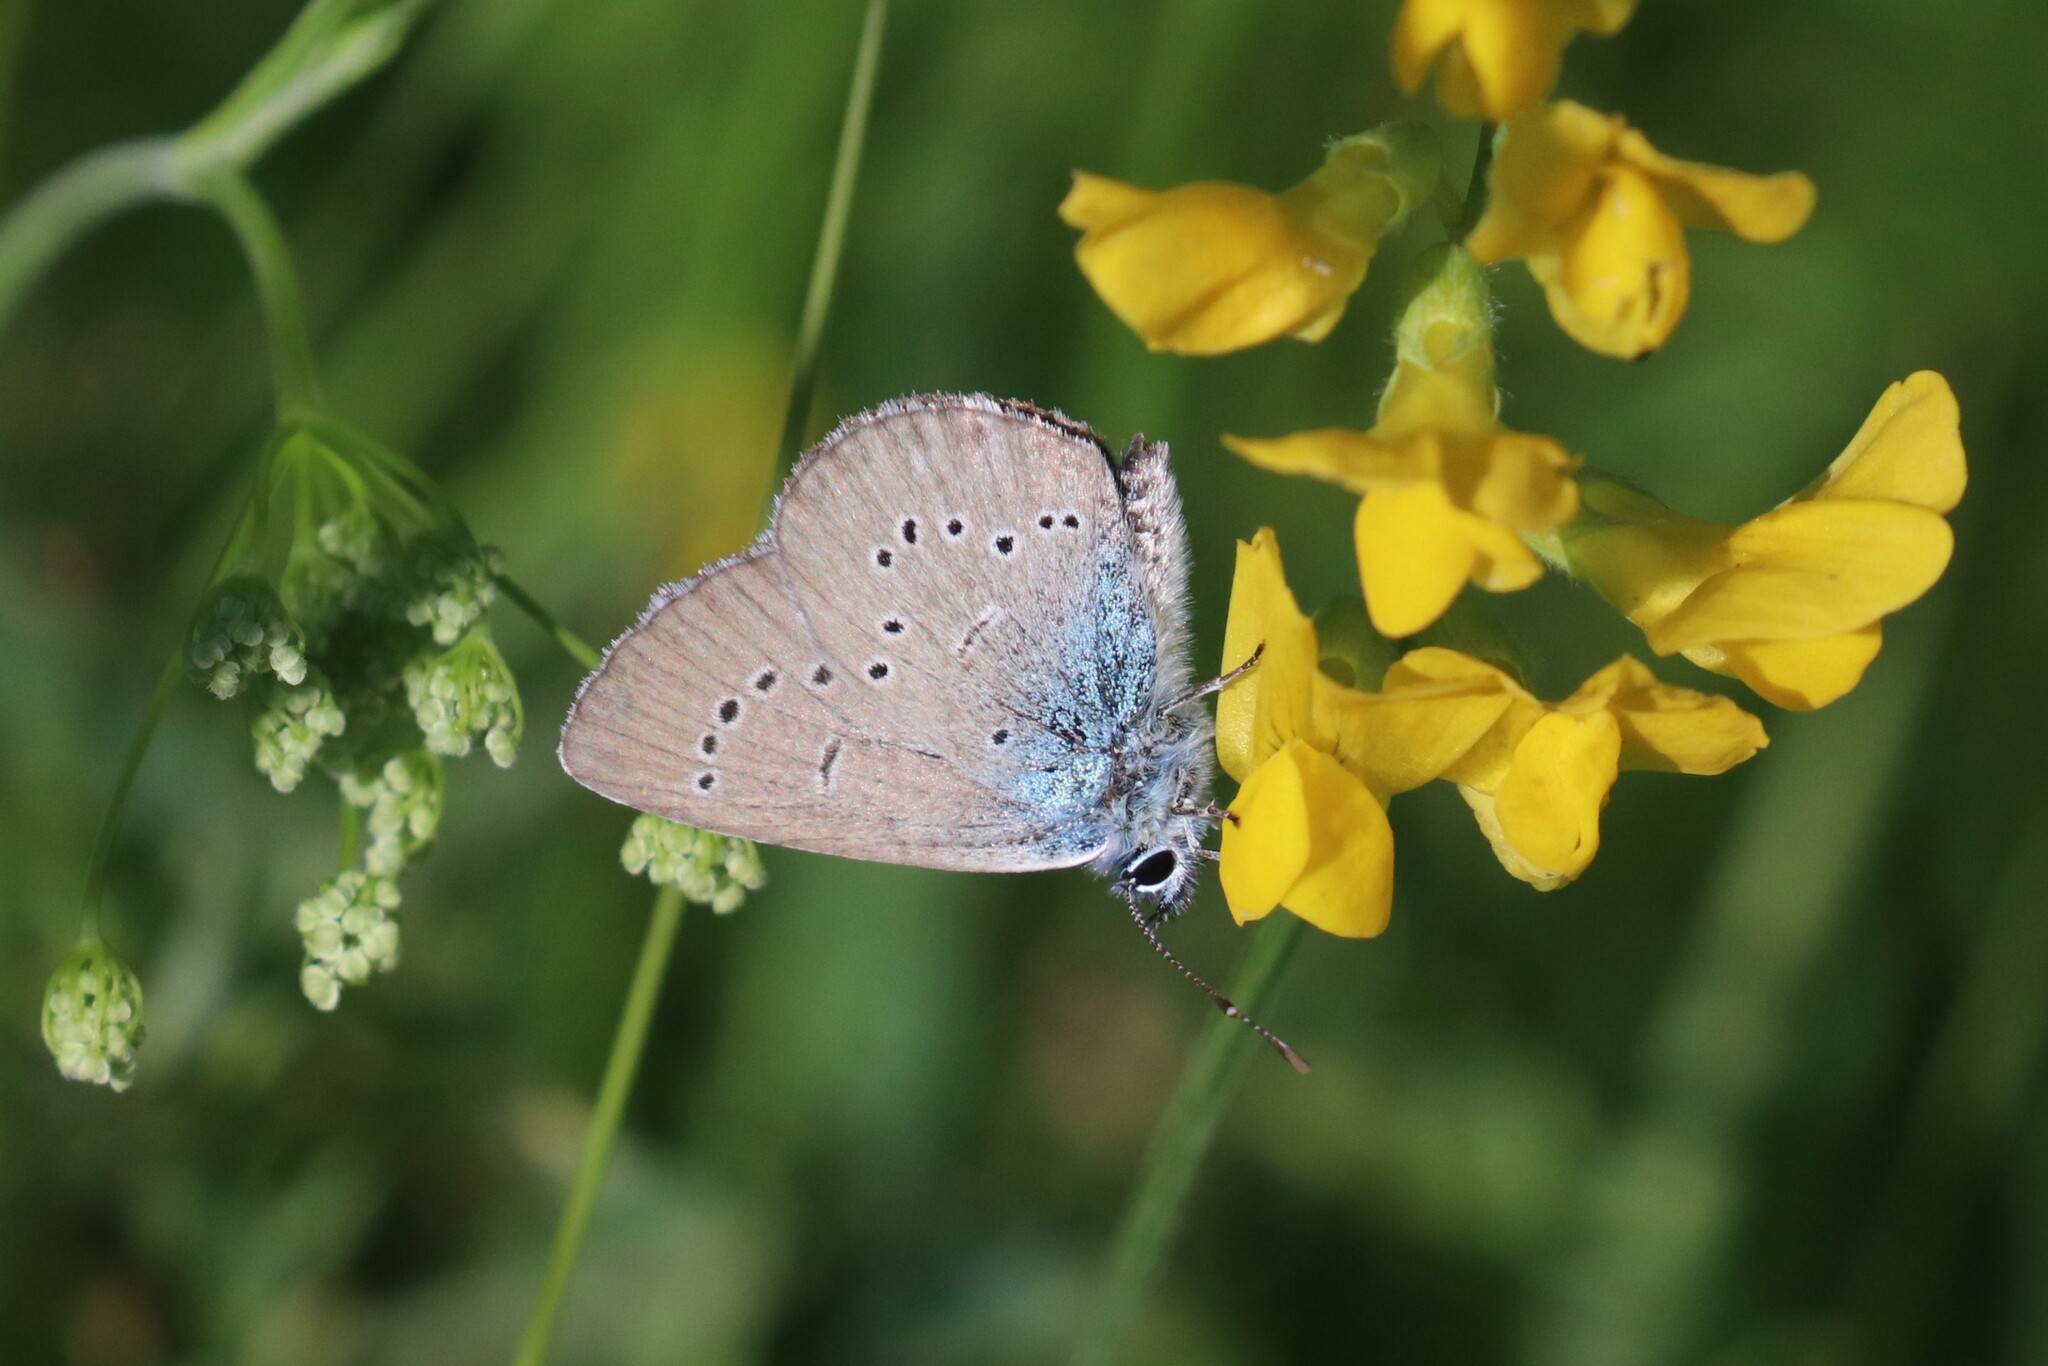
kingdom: Animalia
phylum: Arthropoda
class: Insecta
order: Lepidoptera
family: Lycaenidae
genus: Cyaniris
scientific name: Cyaniris semiargus
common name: Mazarine blue
